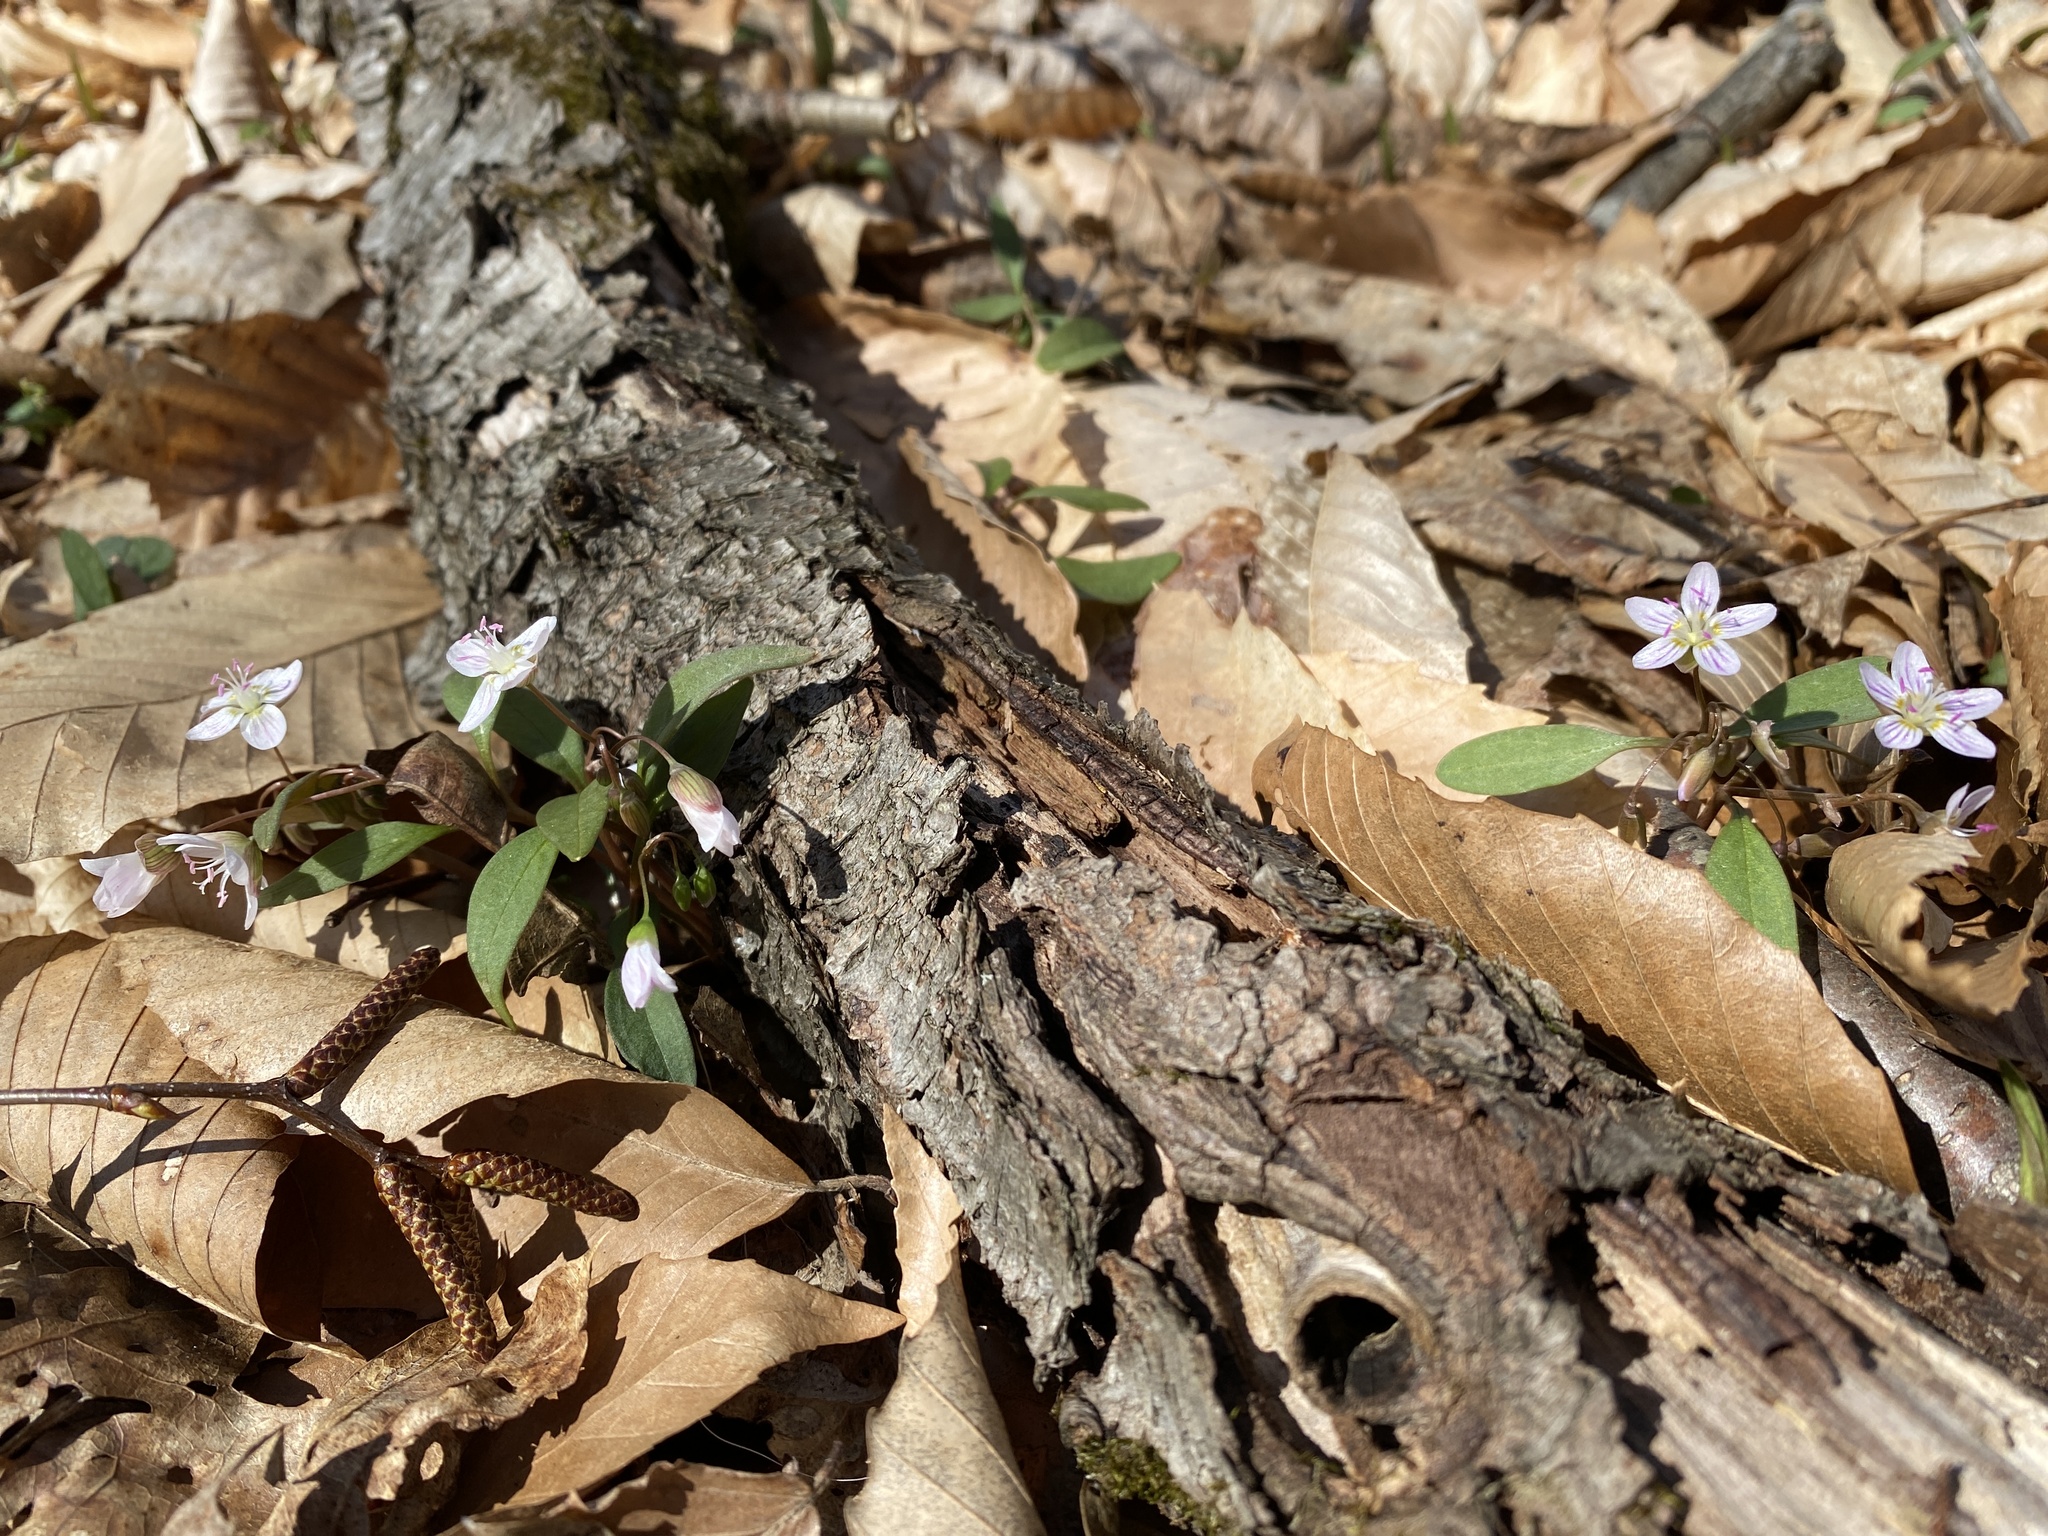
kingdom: Plantae
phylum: Tracheophyta
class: Magnoliopsida
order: Caryophyllales
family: Montiaceae
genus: Claytonia
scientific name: Claytonia caroliniana
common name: Carolina spring beauty
